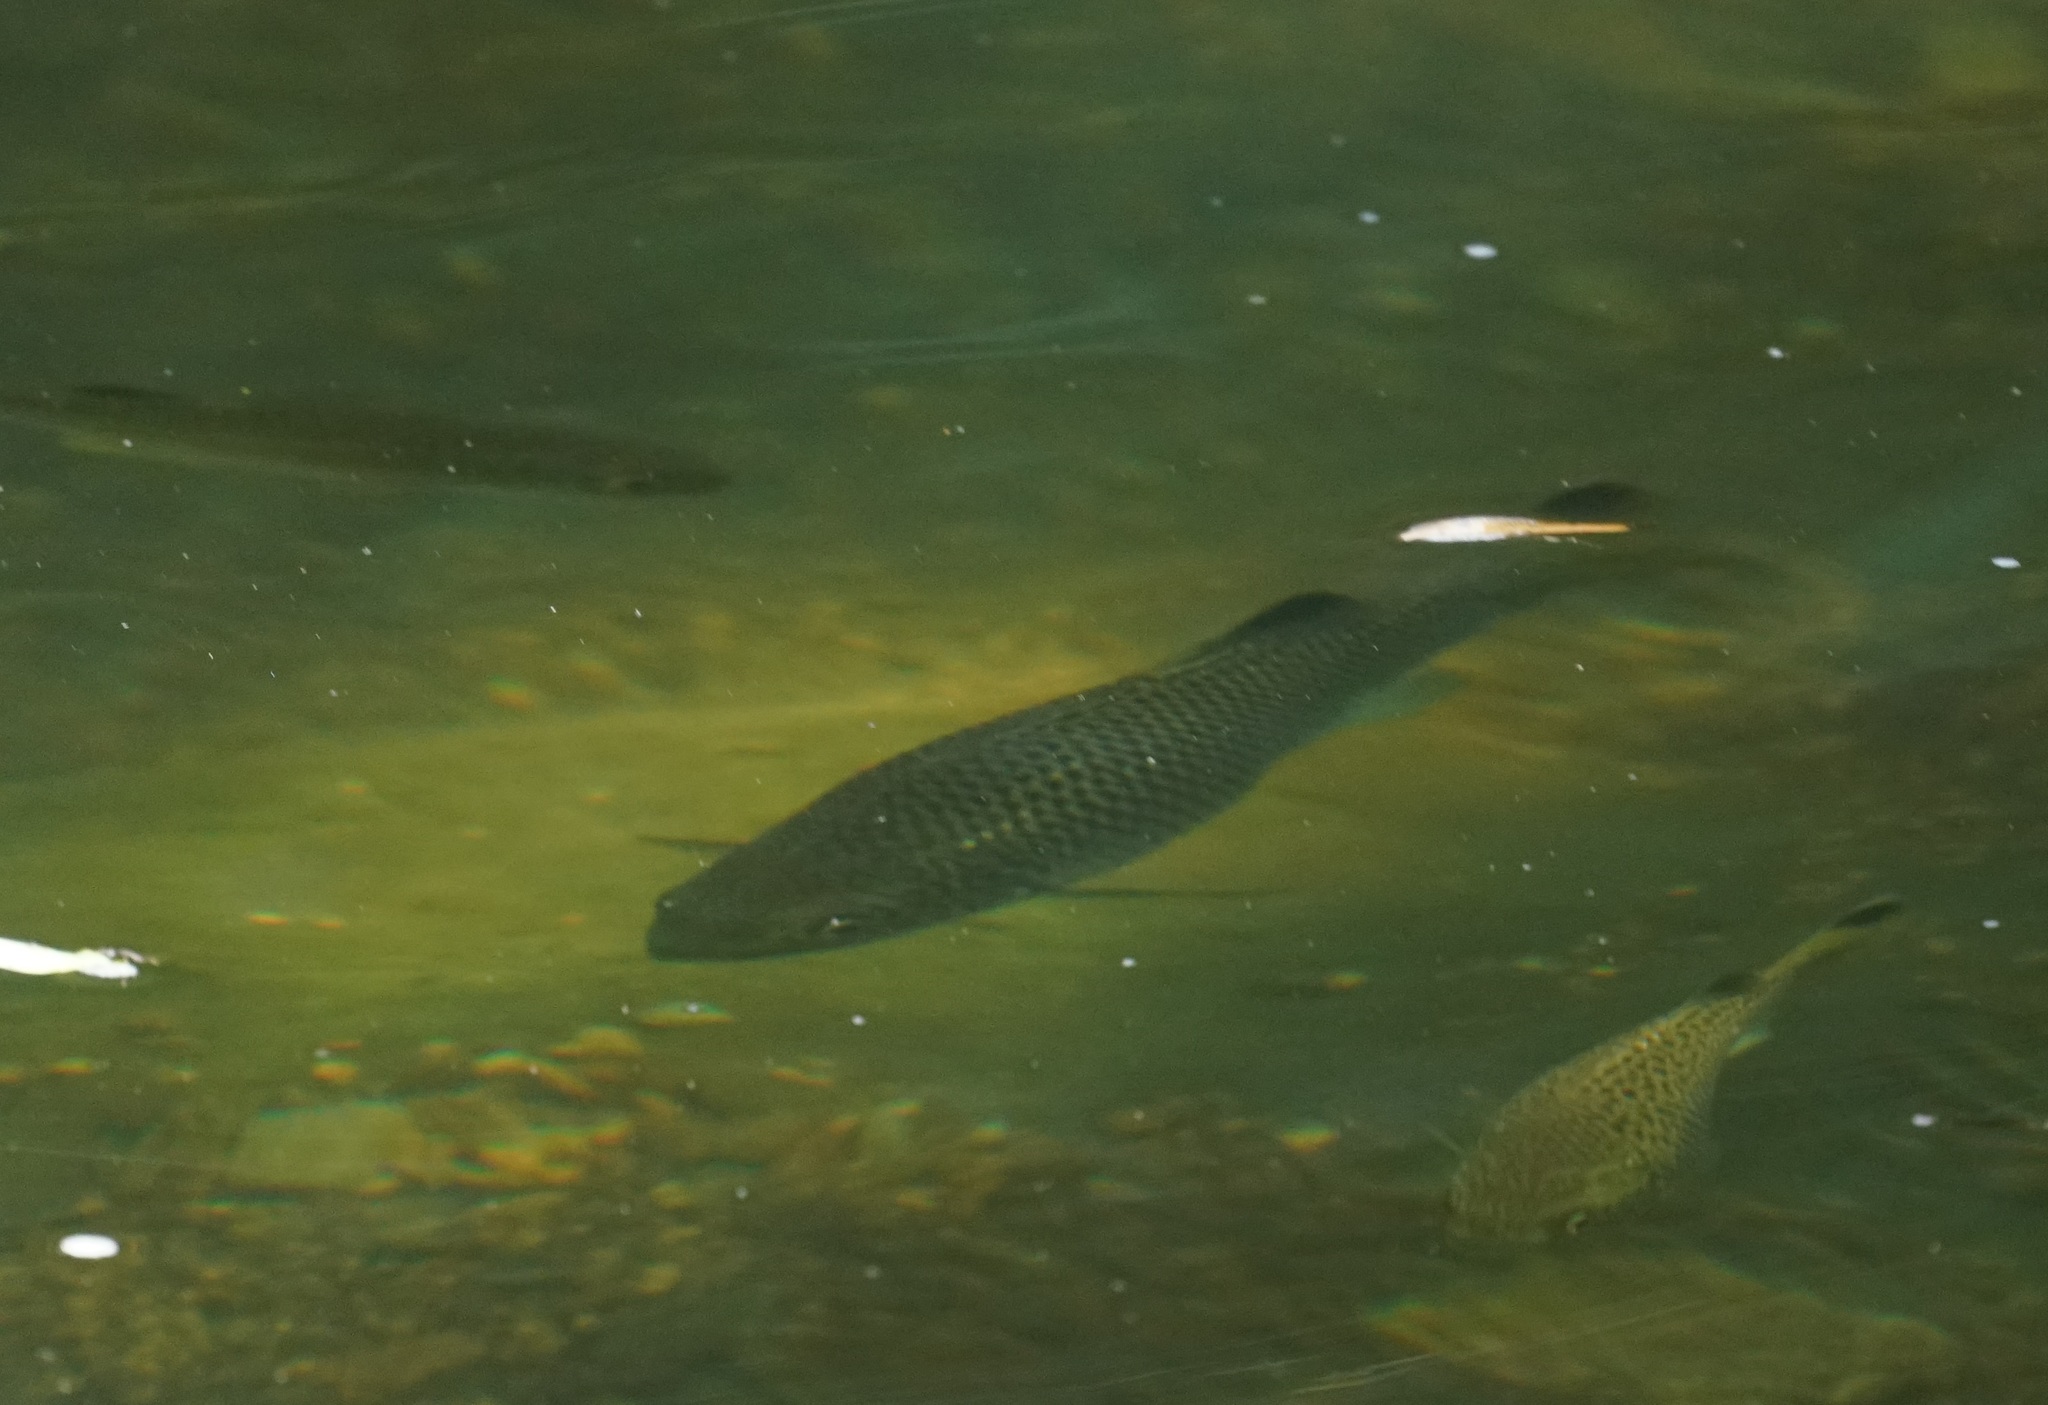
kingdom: Animalia
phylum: Chordata
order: Perciformes
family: Kuhliidae
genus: Kuhlia
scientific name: Kuhlia rupestris
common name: Rock flagtail
